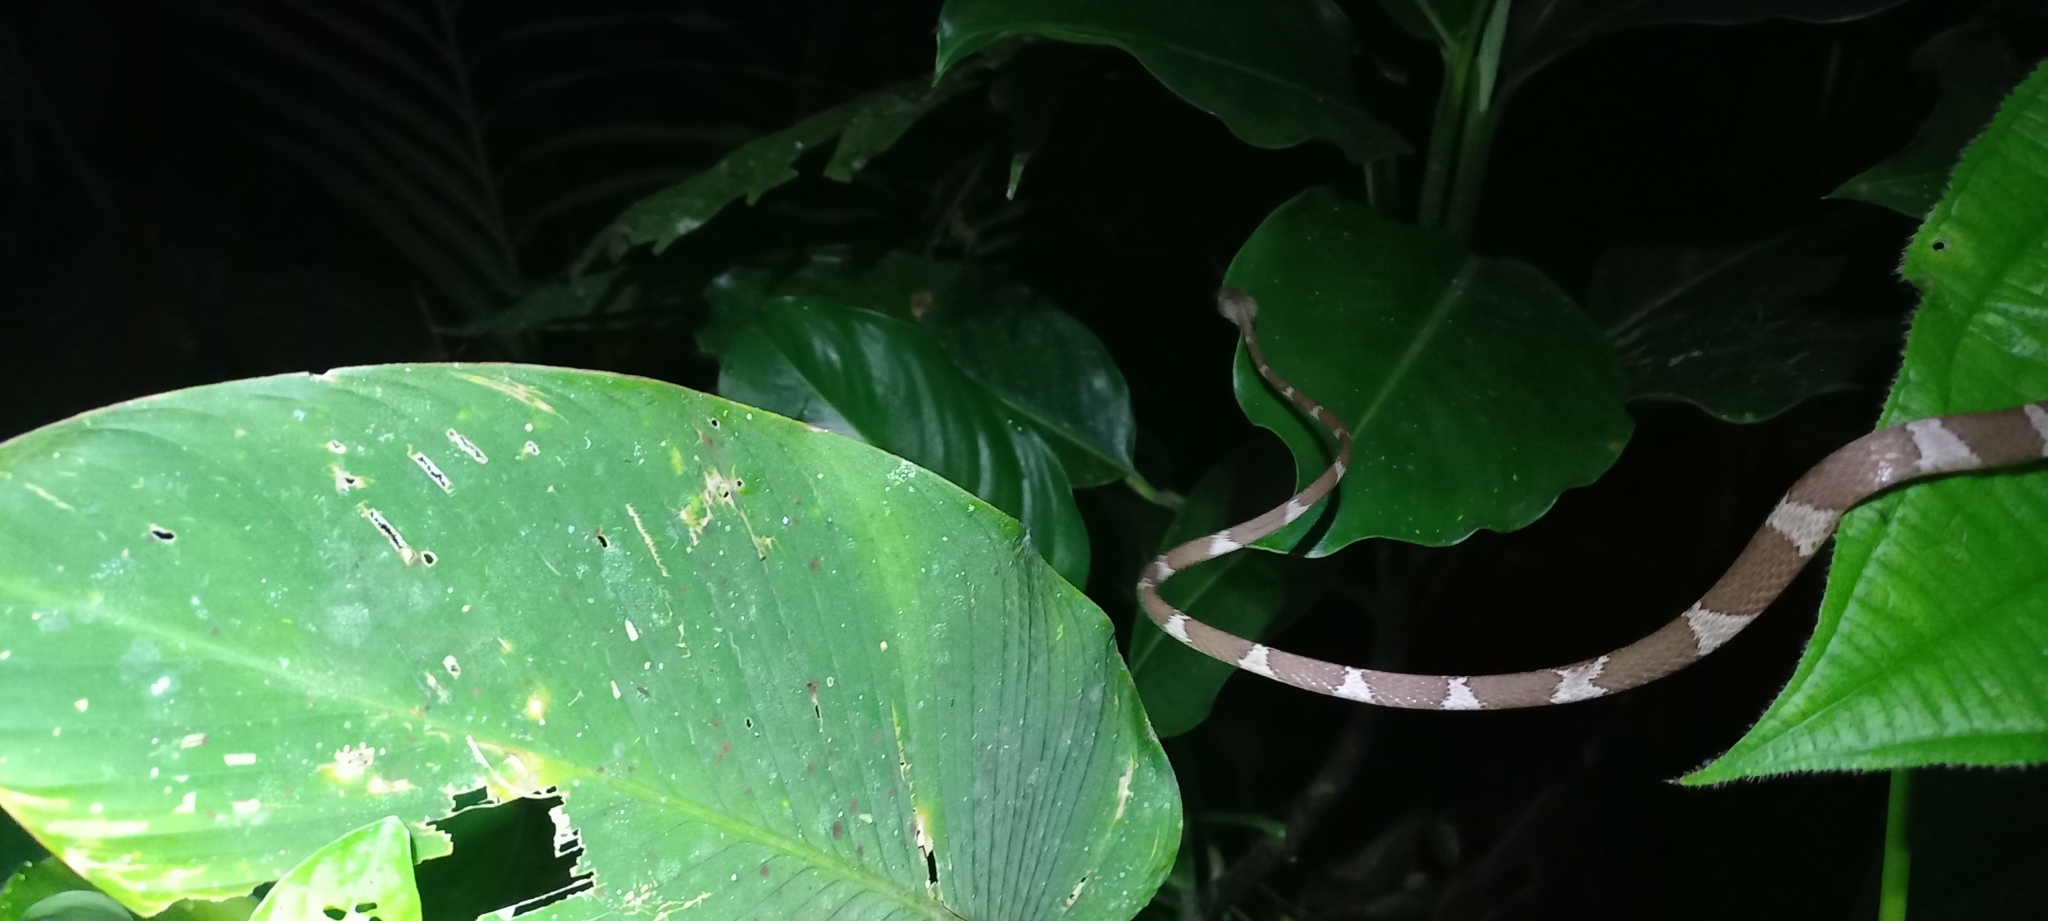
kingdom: Animalia
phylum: Chordata
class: Squamata
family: Colubridae
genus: Imantodes
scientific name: Imantodes cenchoa
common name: Blunthead tree snake
